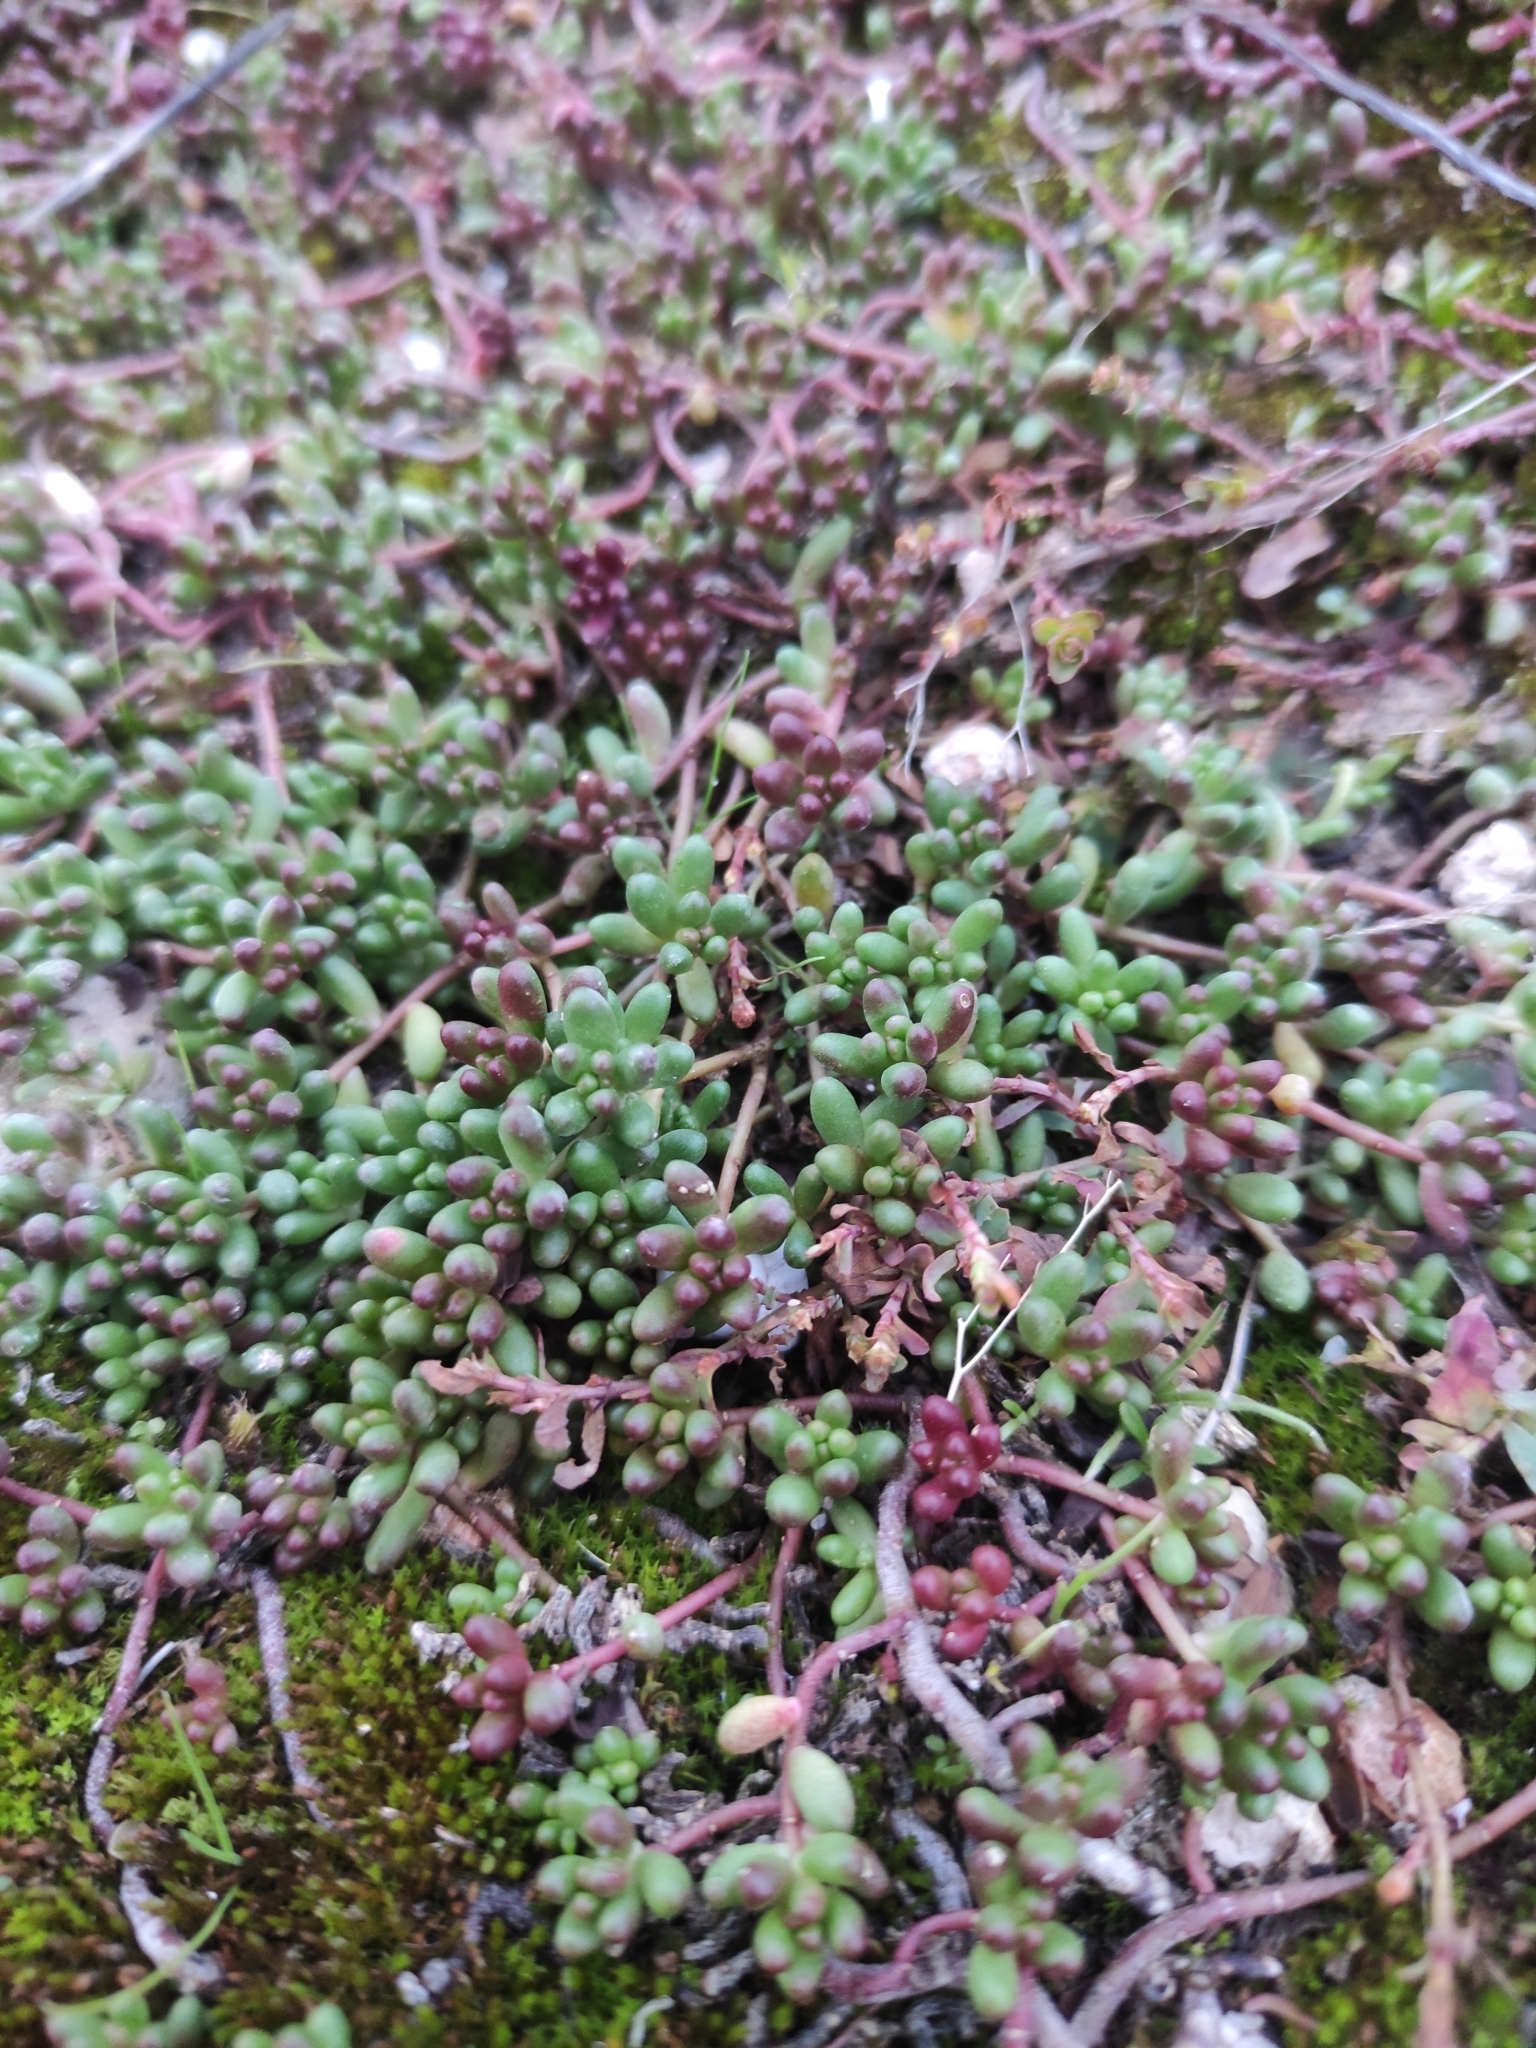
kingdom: Plantae
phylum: Tracheophyta
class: Magnoliopsida
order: Saxifragales
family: Crassulaceae
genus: Sedum
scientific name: Sedum album
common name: White stonecrop
